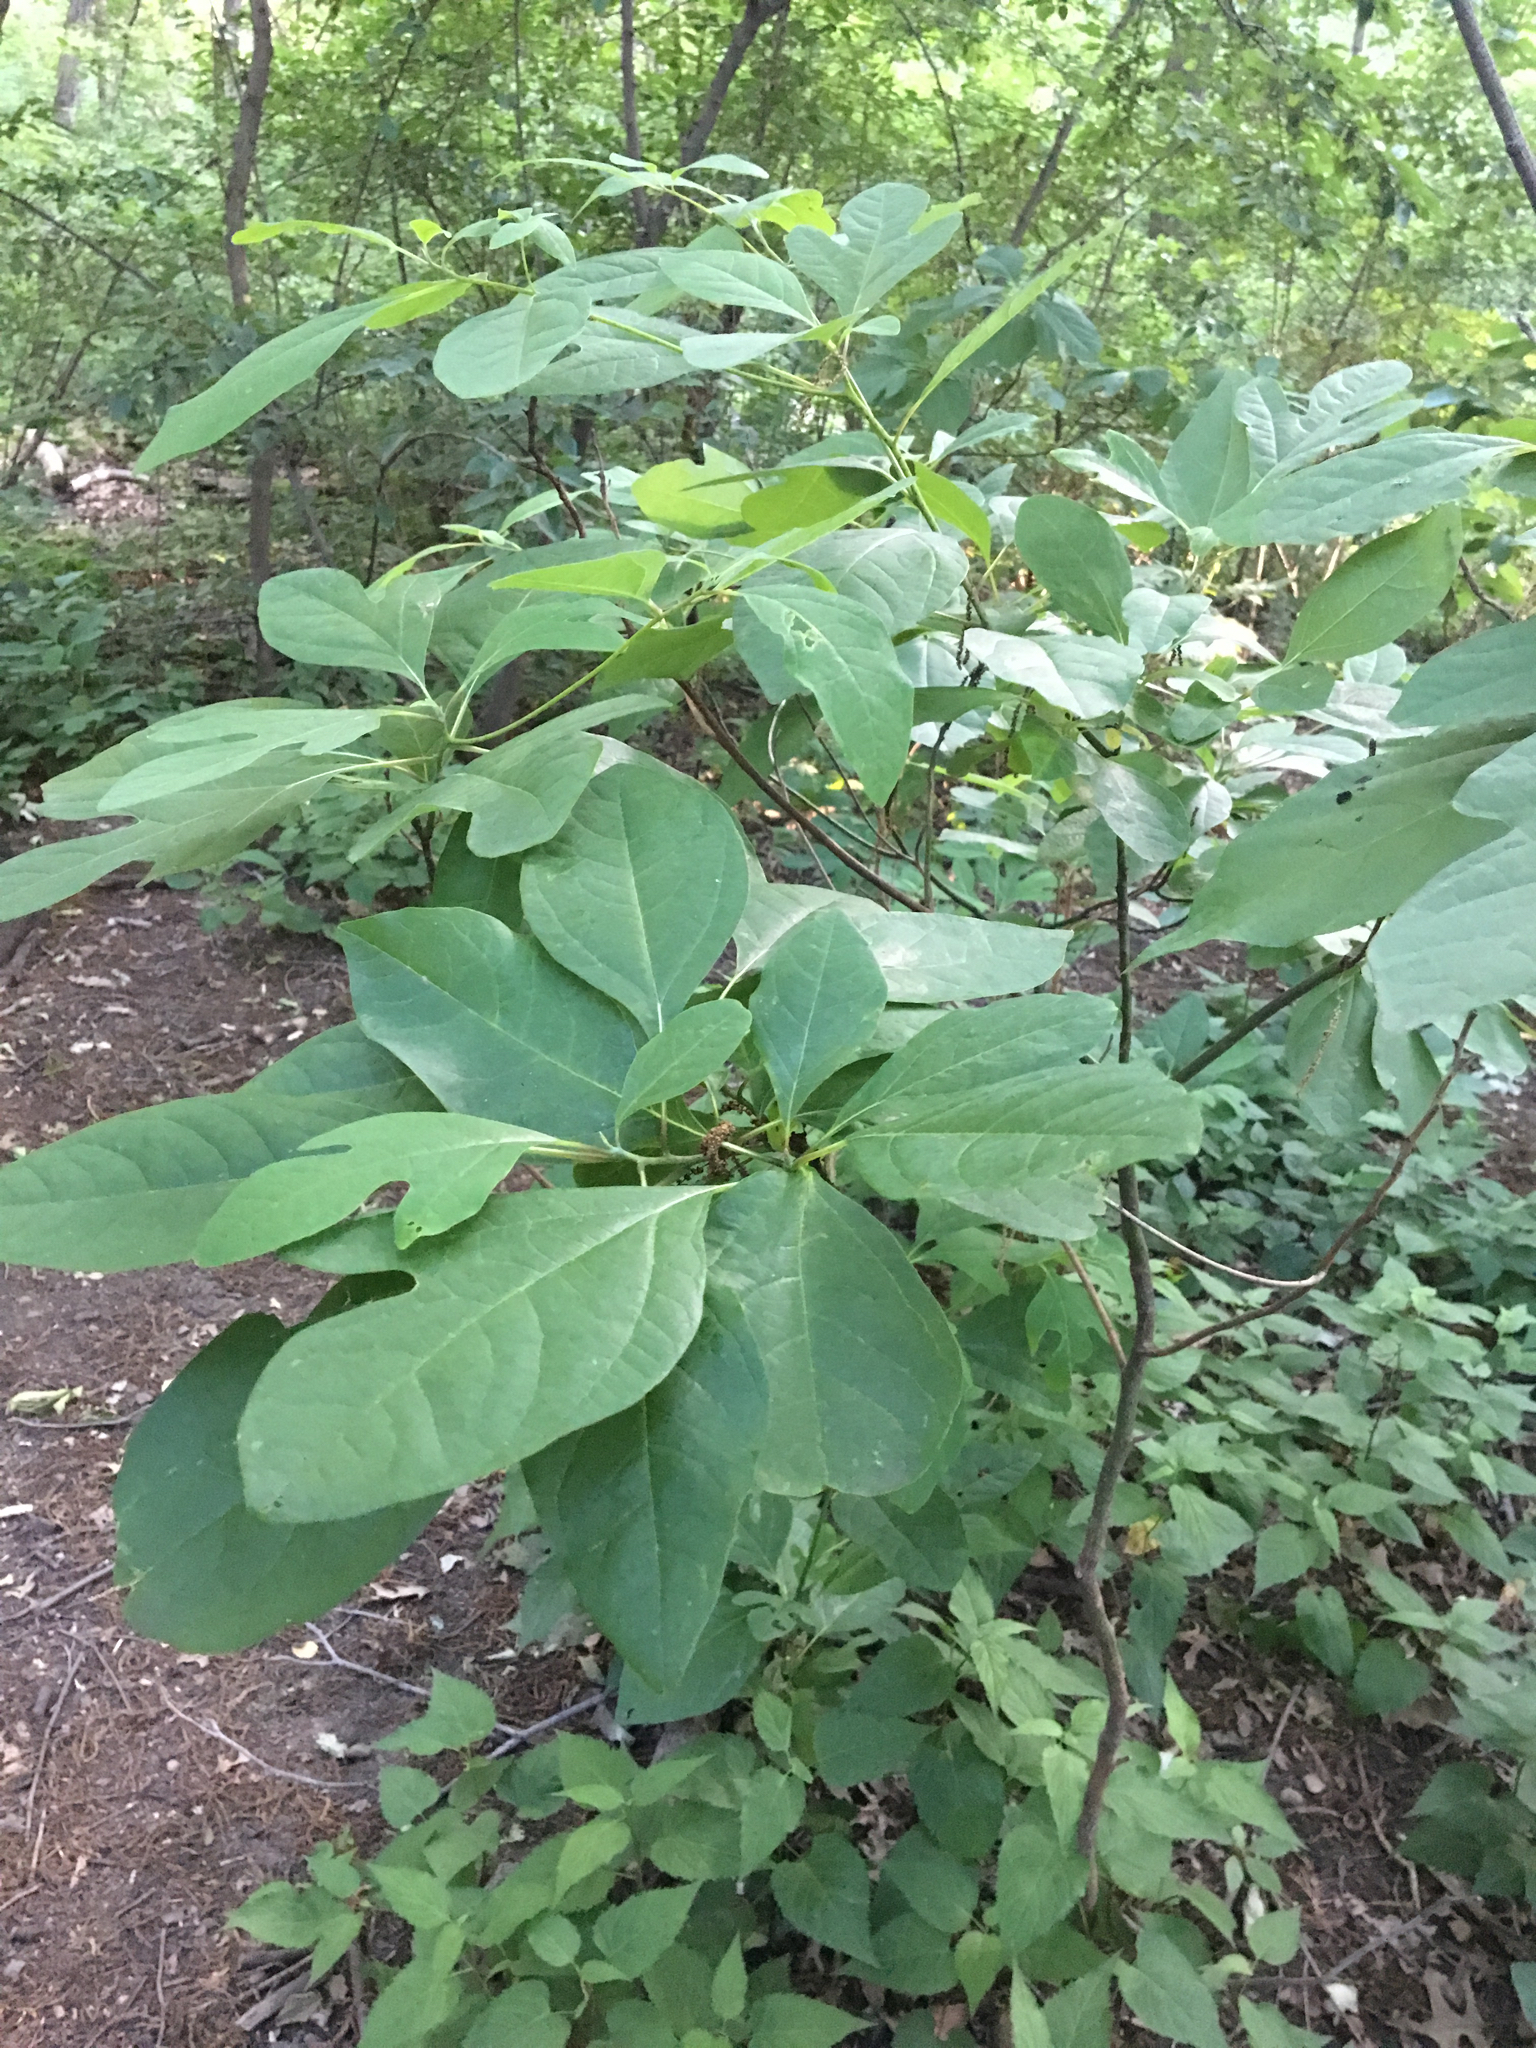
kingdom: Plantae
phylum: Tracheophyta
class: Magnoliopsida
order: Laurales
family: Lauraceae
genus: Sassafras
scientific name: Sassafras albidum
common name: Sassafras
